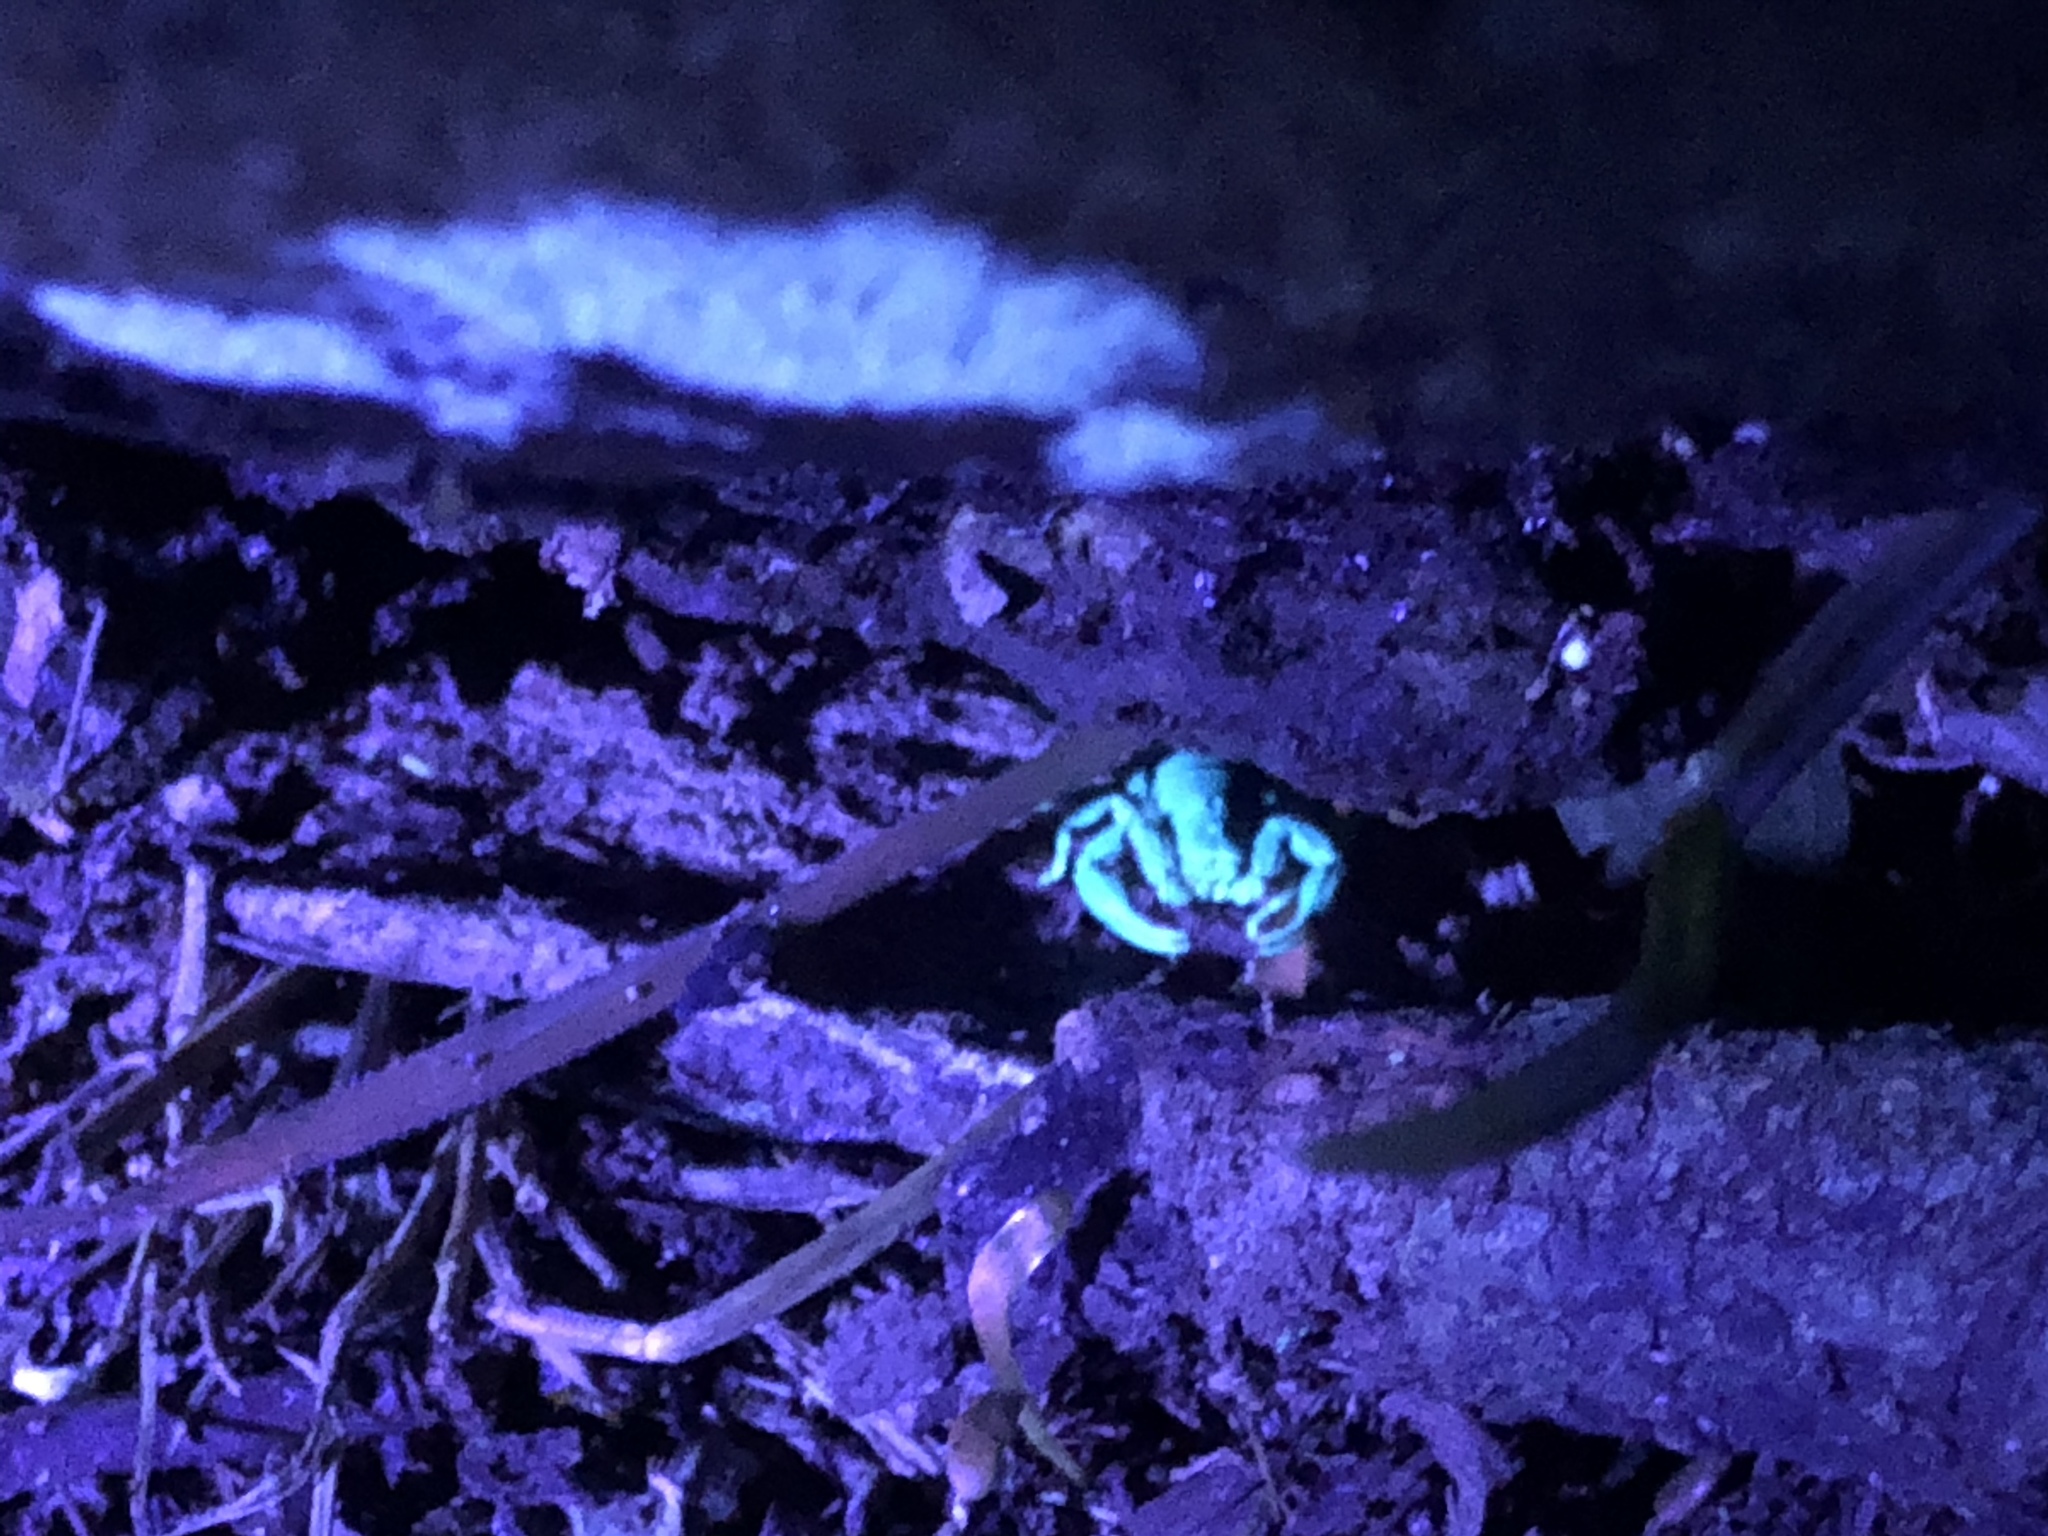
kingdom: Animalia
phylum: Arthropoda
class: Arachnida
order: Scorpiones
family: Bothriuridae
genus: Cercophonius
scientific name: Cercophonius squama
